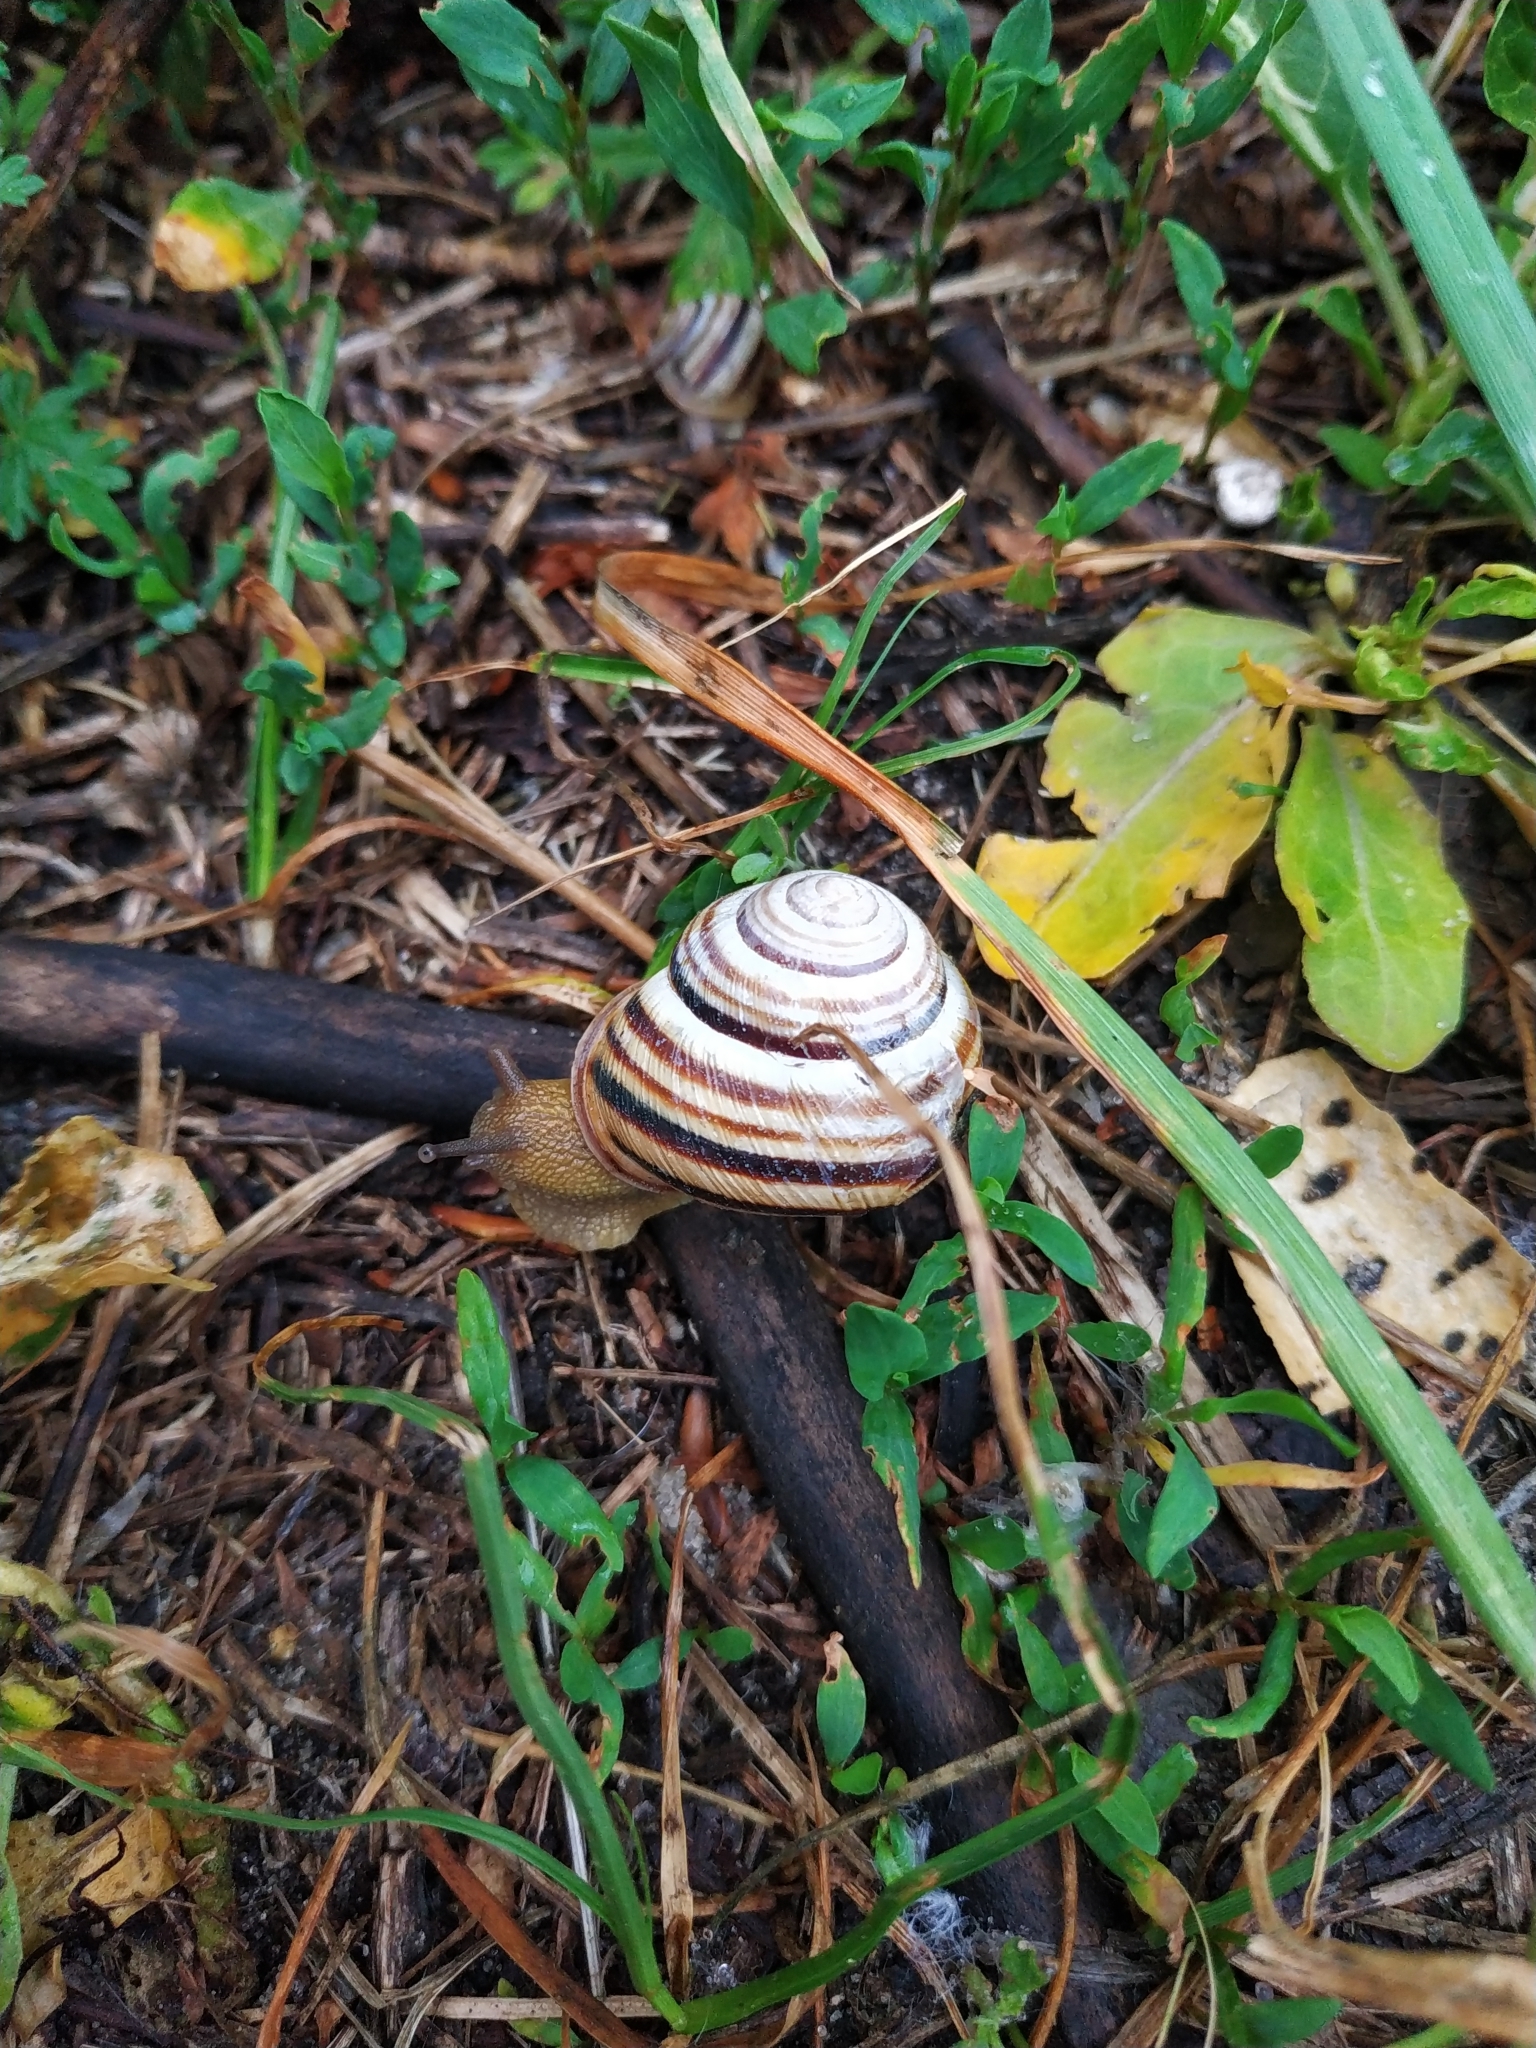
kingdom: Animalia
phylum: Mollusca
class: Gastropoda
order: Stylommatophora
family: Helicidae
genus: Caucasotachea
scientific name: Caucasotachea vindobonensis
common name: European helicid land snail
